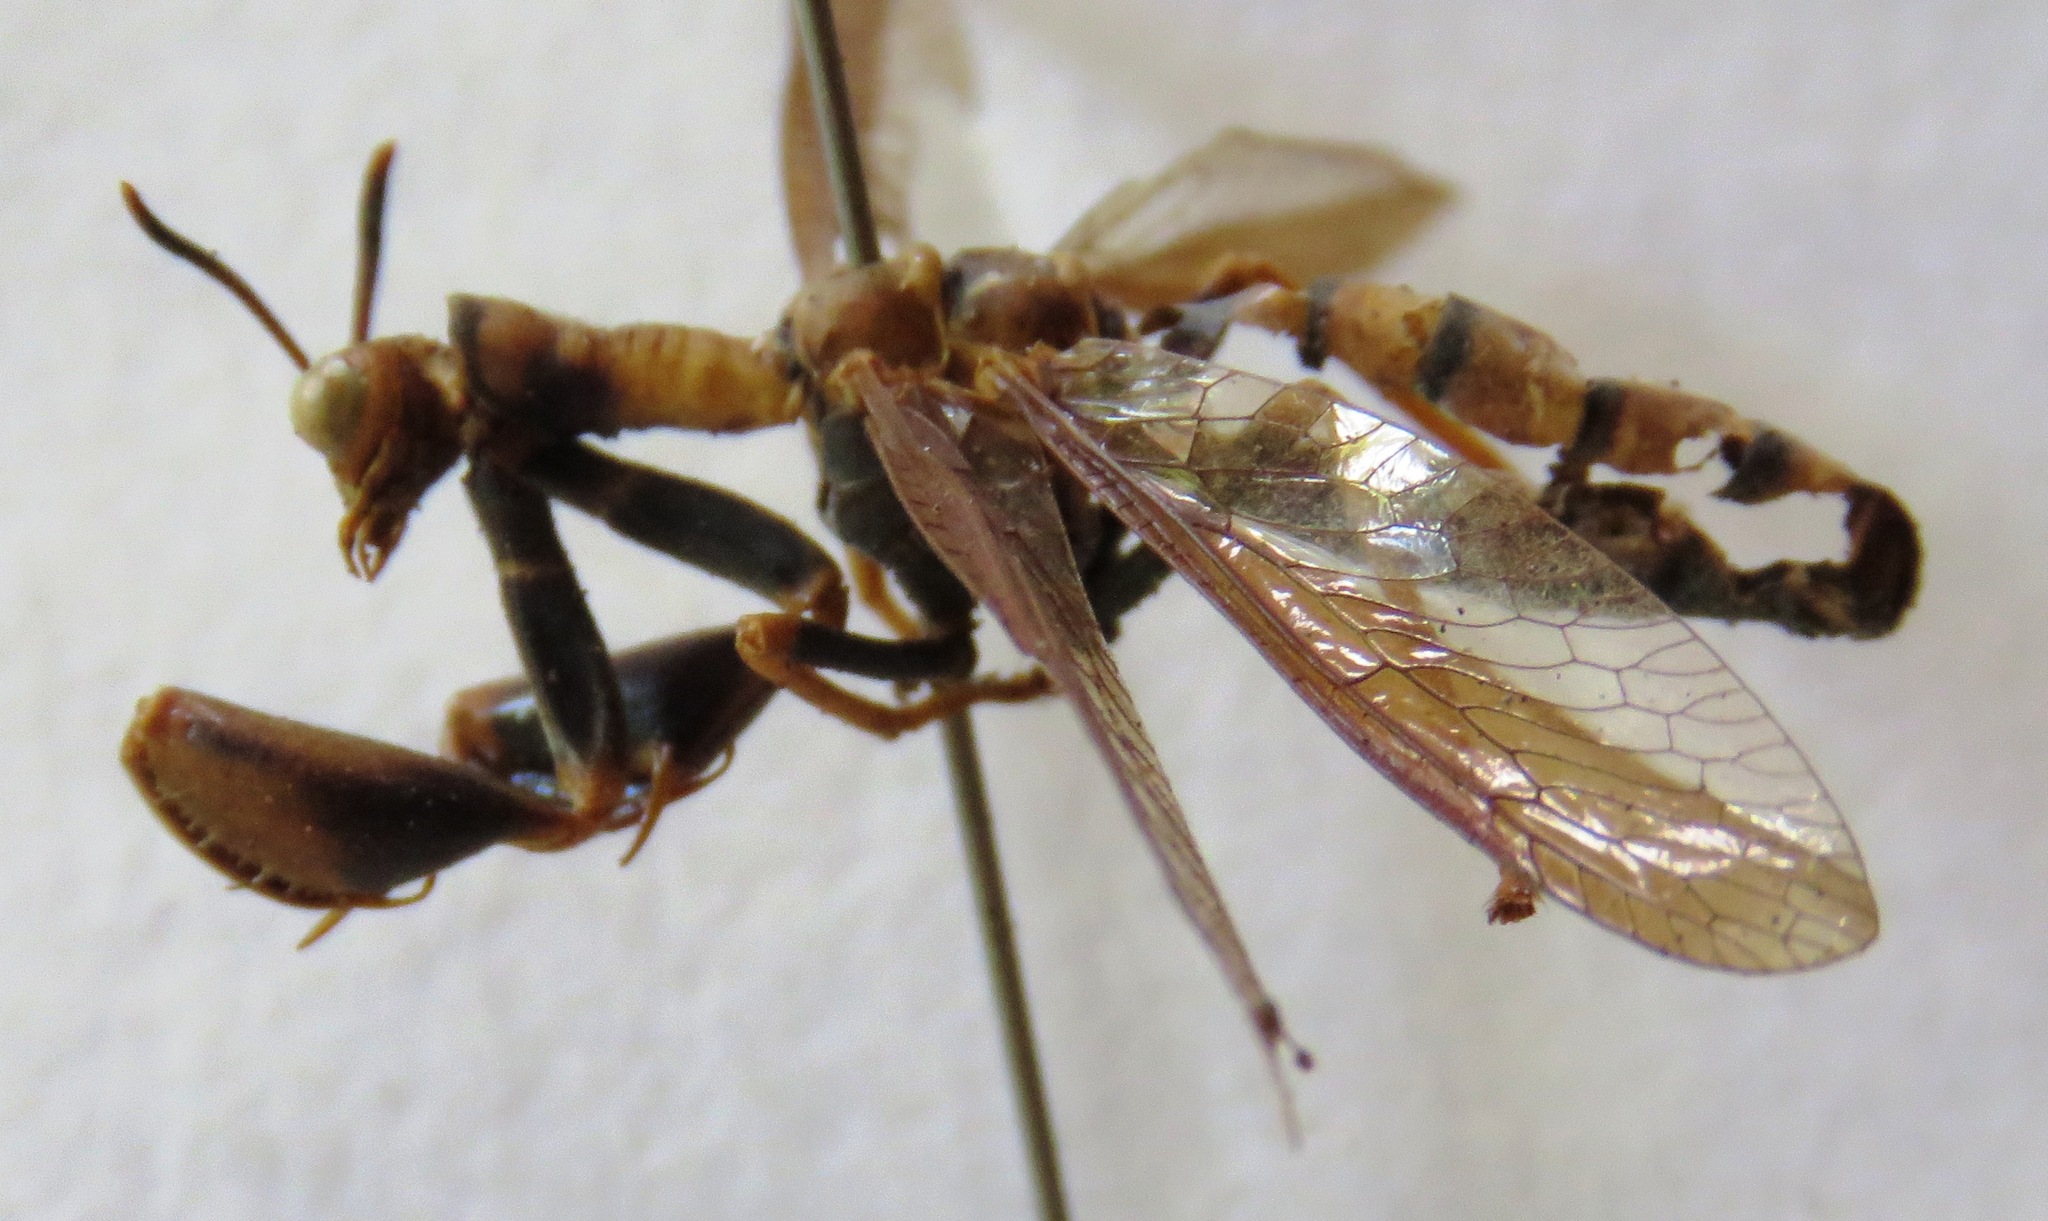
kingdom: Animalia
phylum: Arthropoda
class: Insecta
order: Neuroptera
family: Mantispidae
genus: Climaciella
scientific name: Climaciella brunnea
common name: Brown wasp mantidfly
